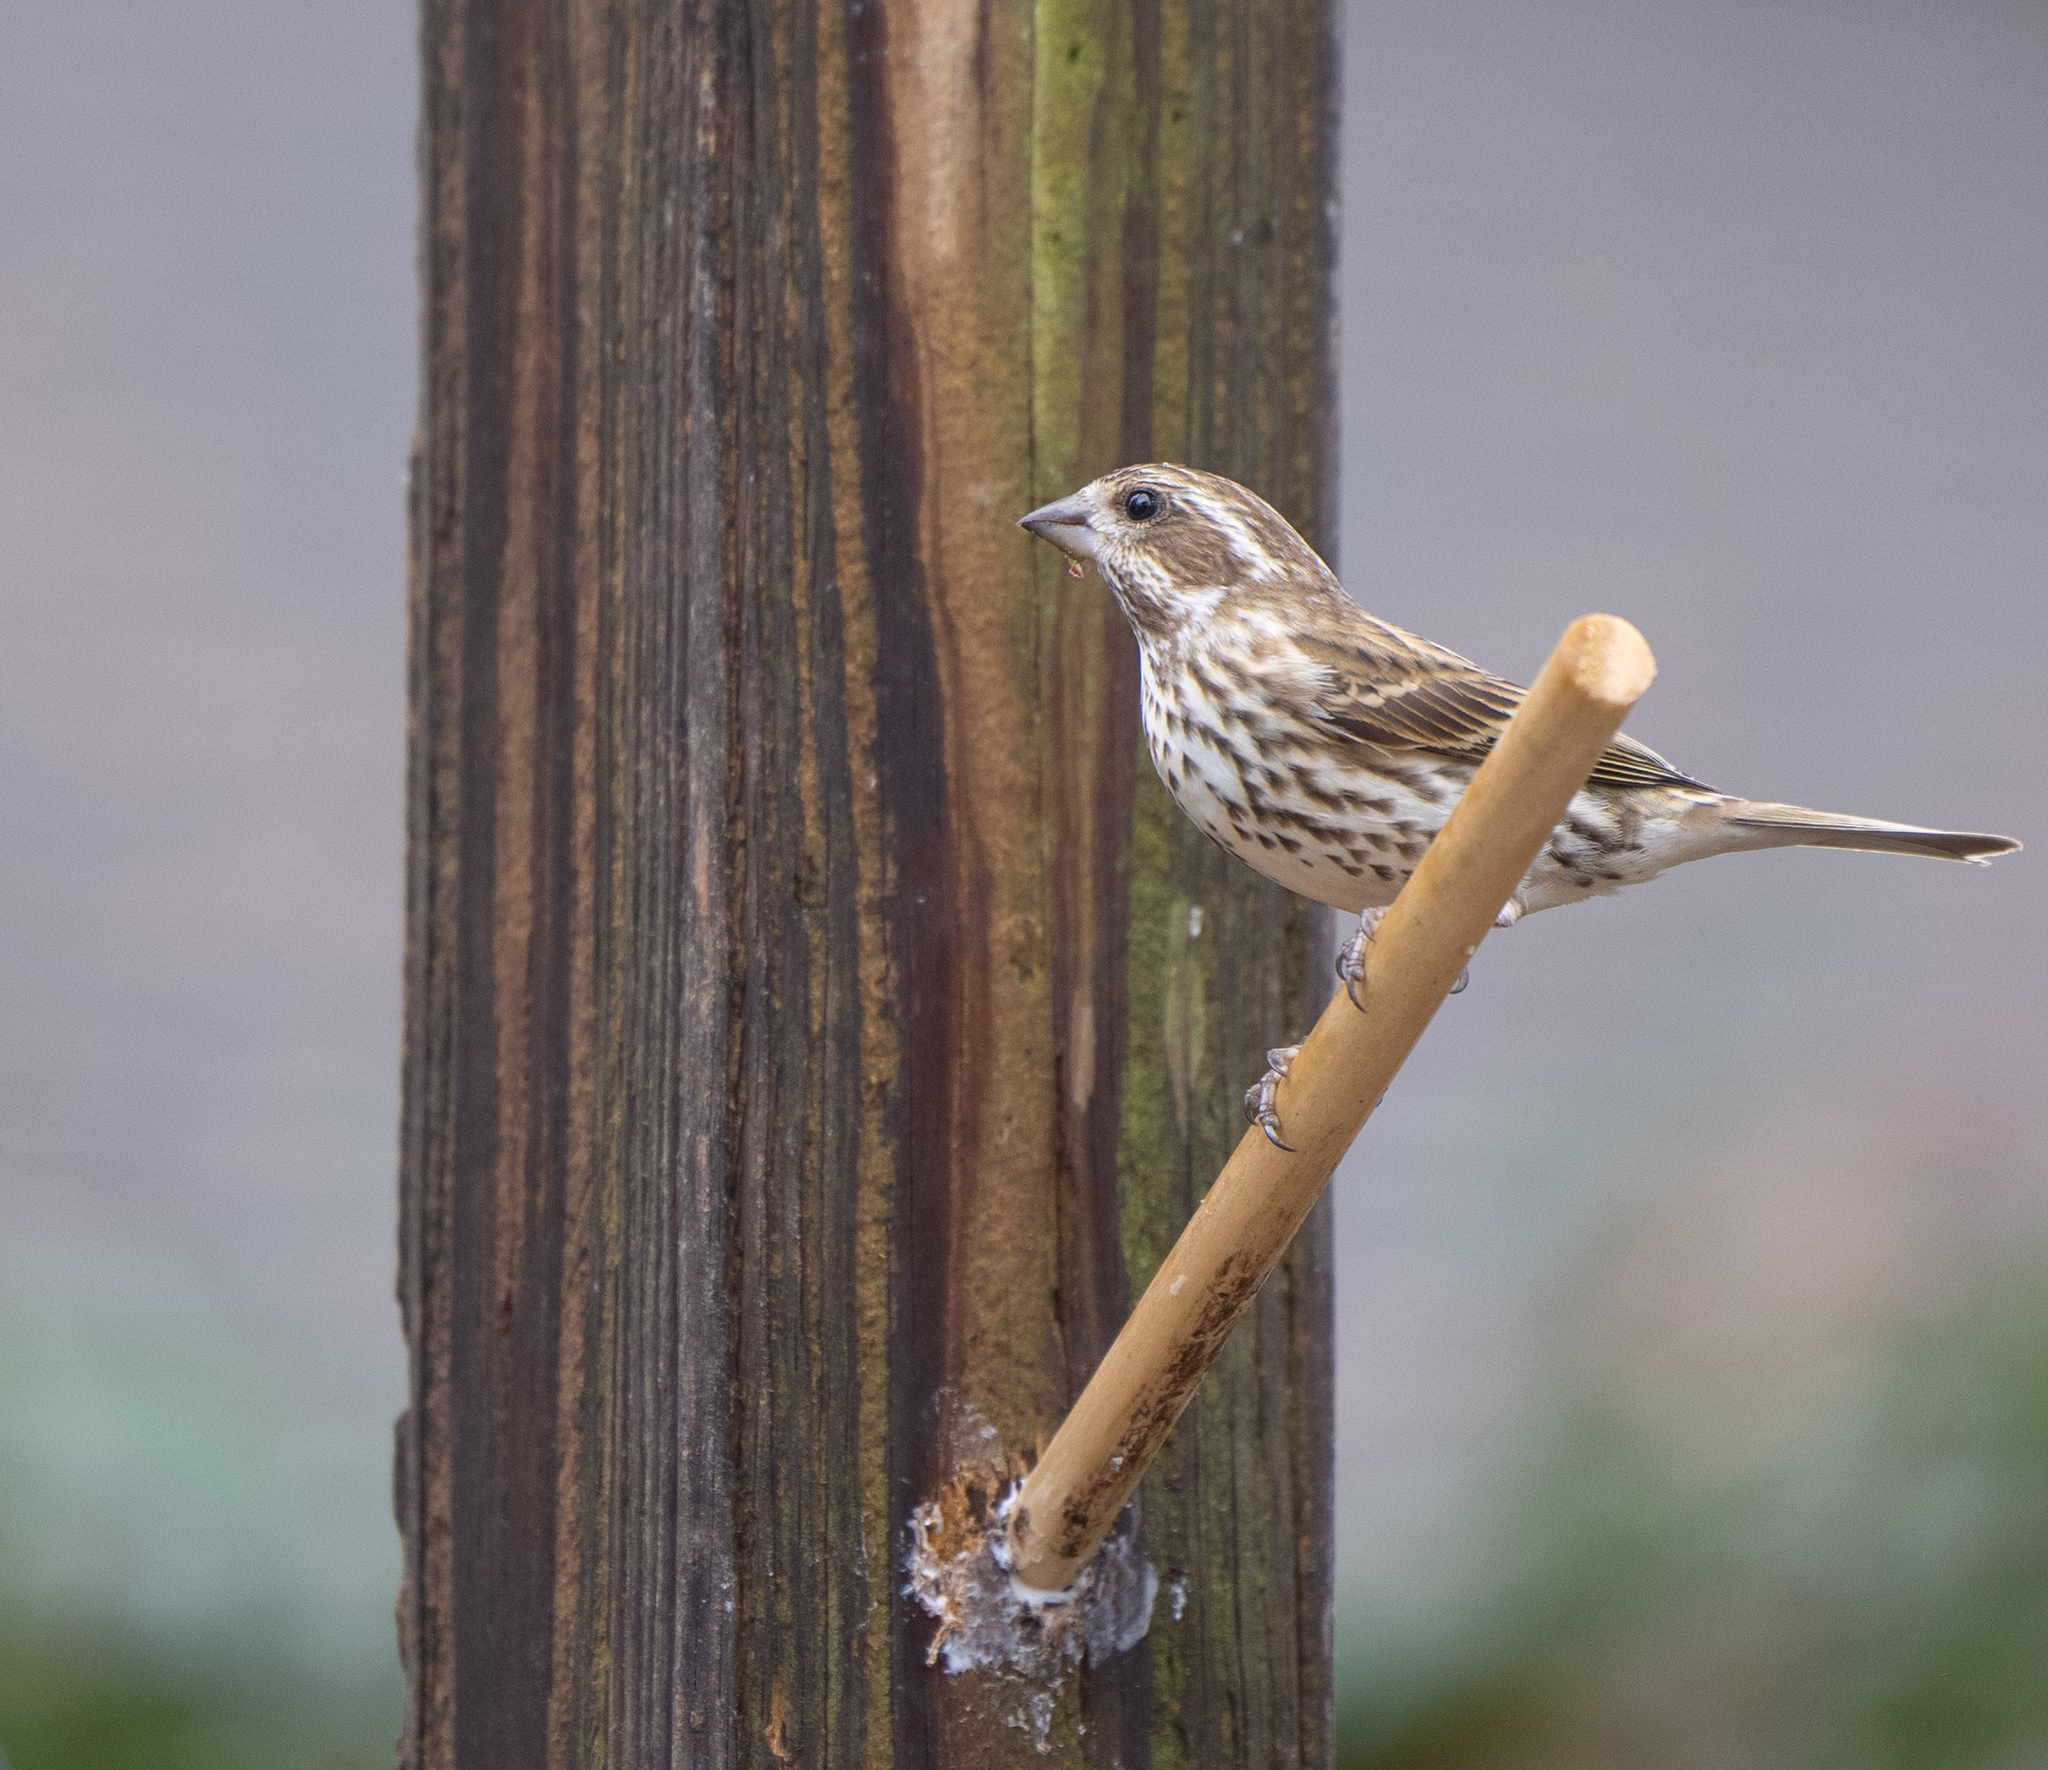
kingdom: Animalia
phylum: Chordata
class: Aves
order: Passeriformes
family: Fringillidae
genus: Haemorhous
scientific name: Haemorhous purpureus
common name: Purple finch
